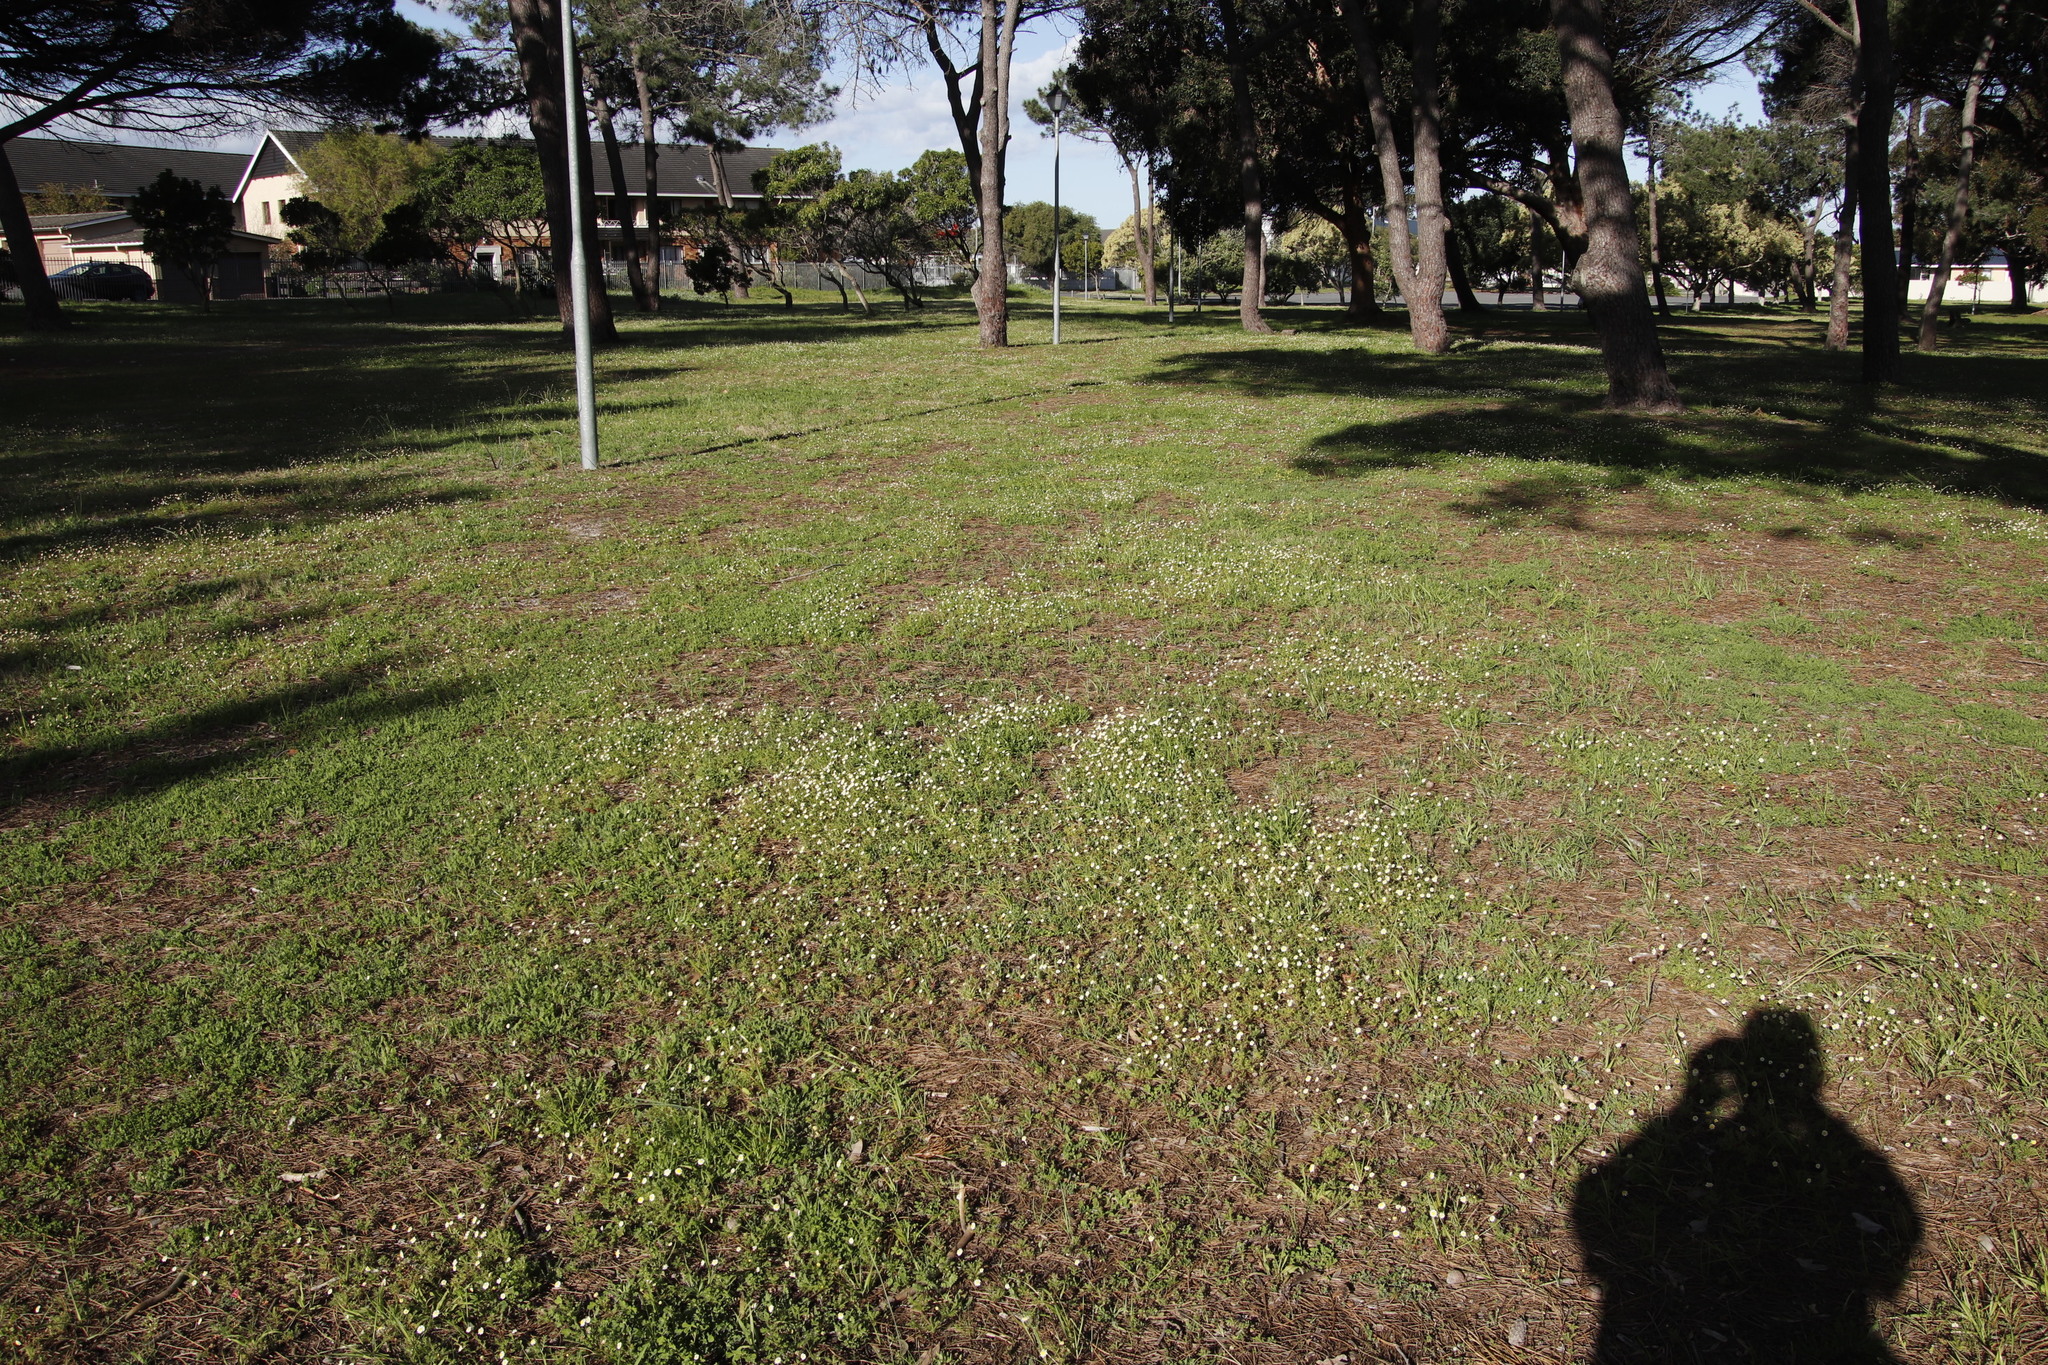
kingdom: Plantae
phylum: Tracheophyta
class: Magnoliopsida
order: Asterales
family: Asteraceae
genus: Cotula
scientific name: Cotula turbinata
